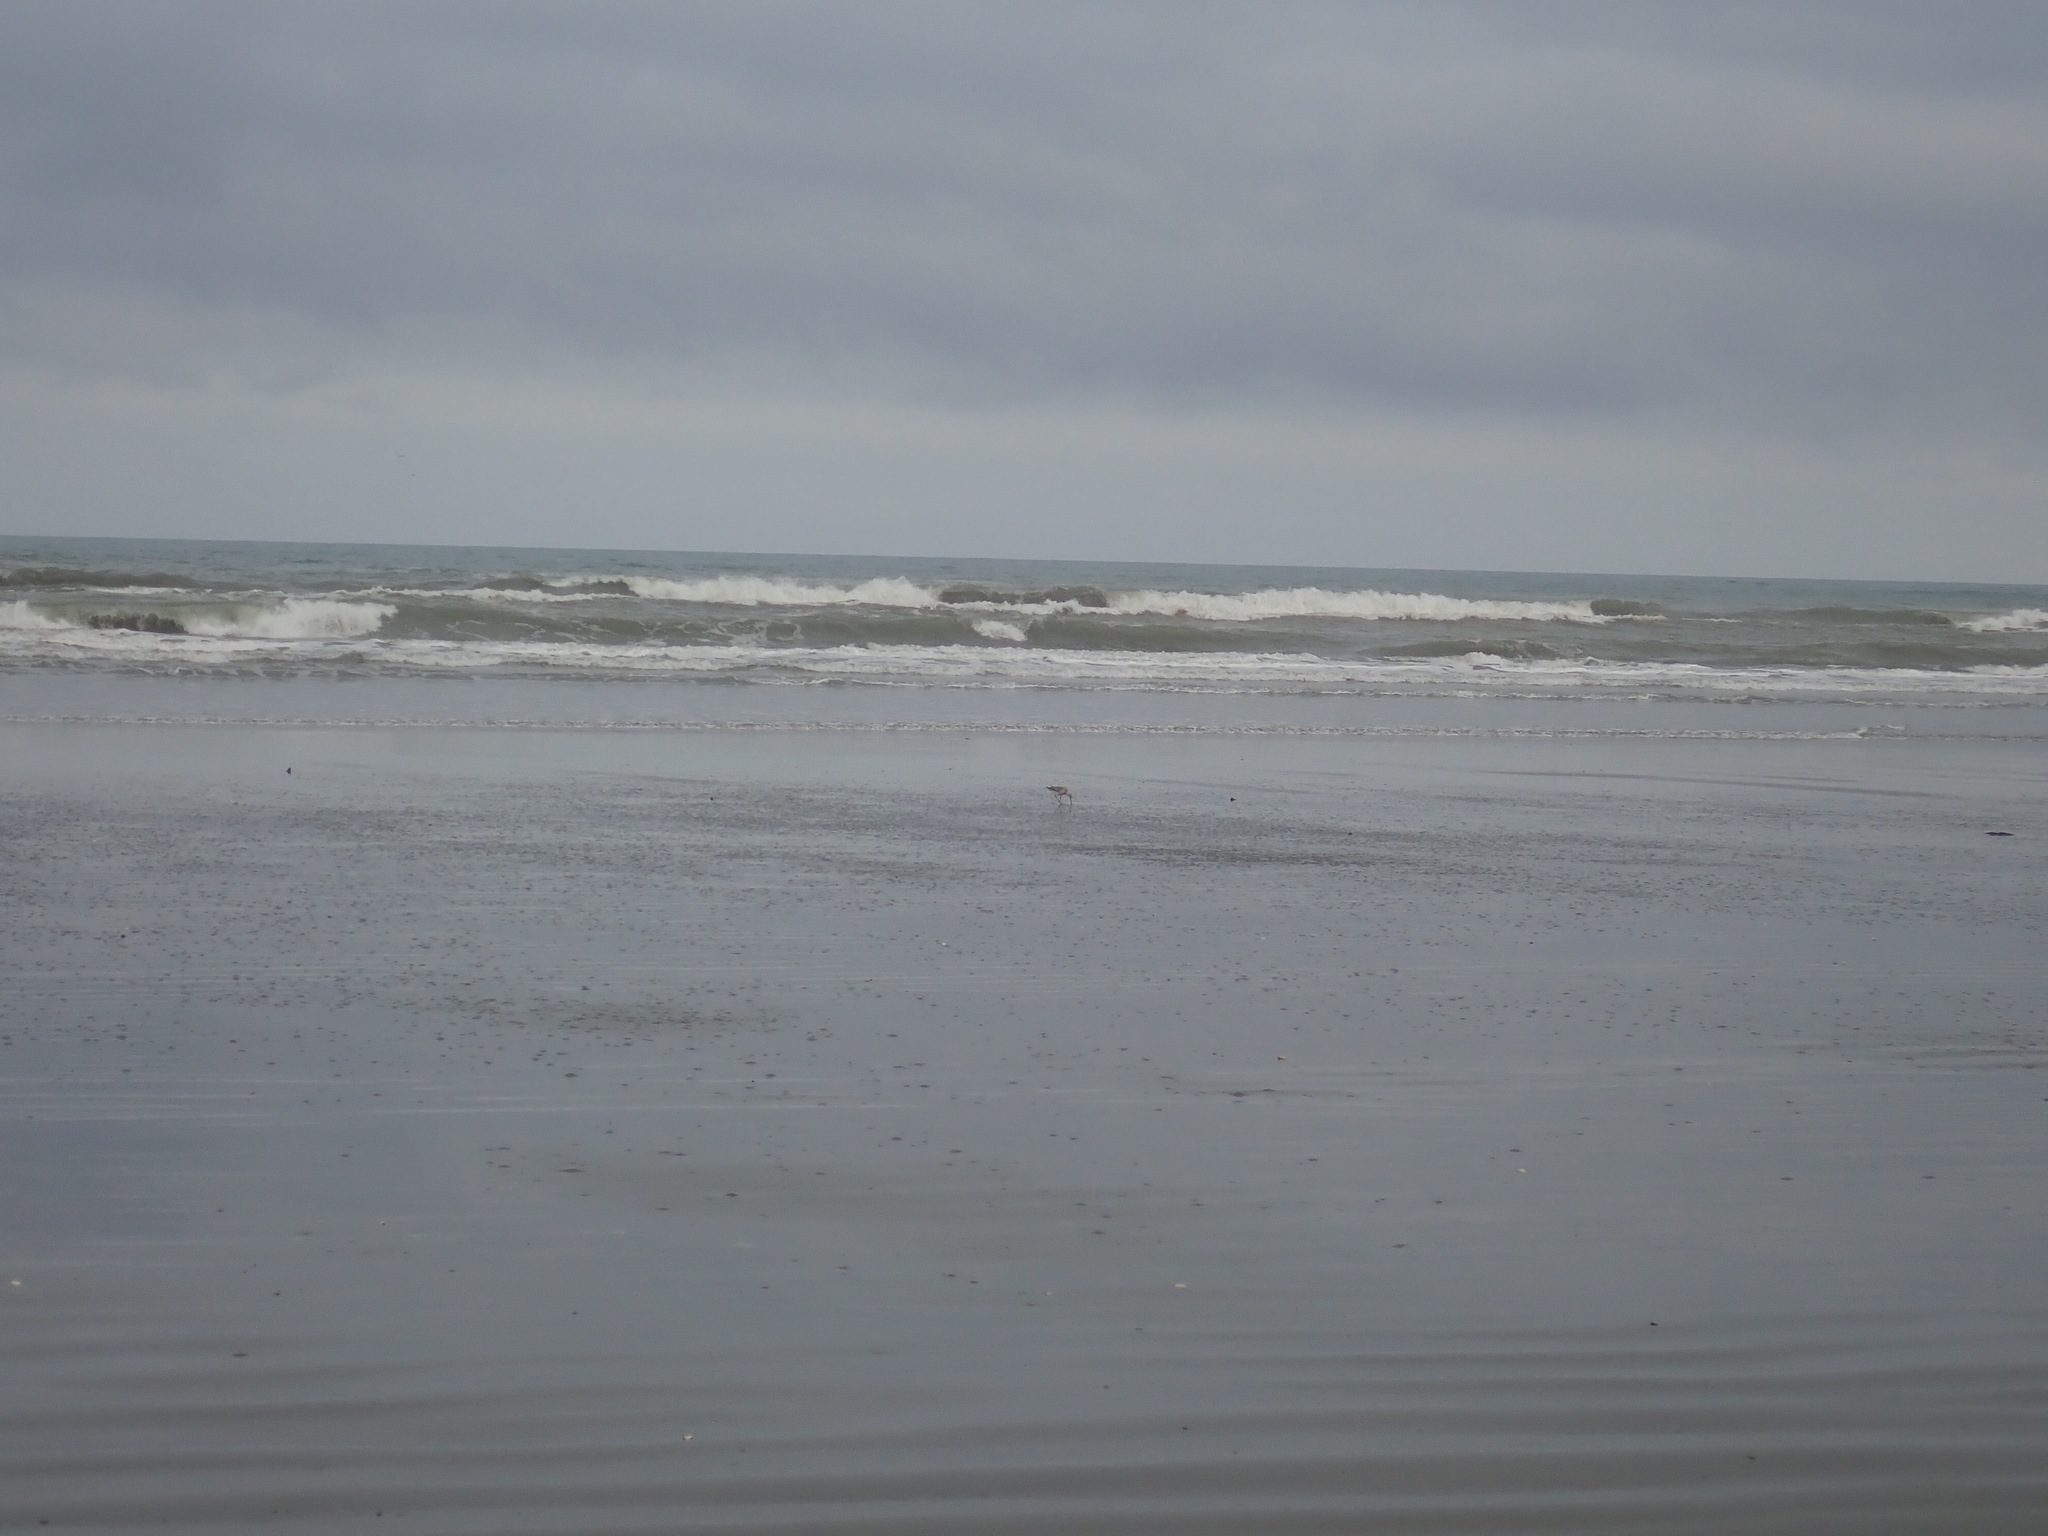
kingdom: Animalia
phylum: Chordata
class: Aves
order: Charadriiformes
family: Scolopacidae
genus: Limosa
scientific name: Limosa lapponica
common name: Bar-tailed godwit
